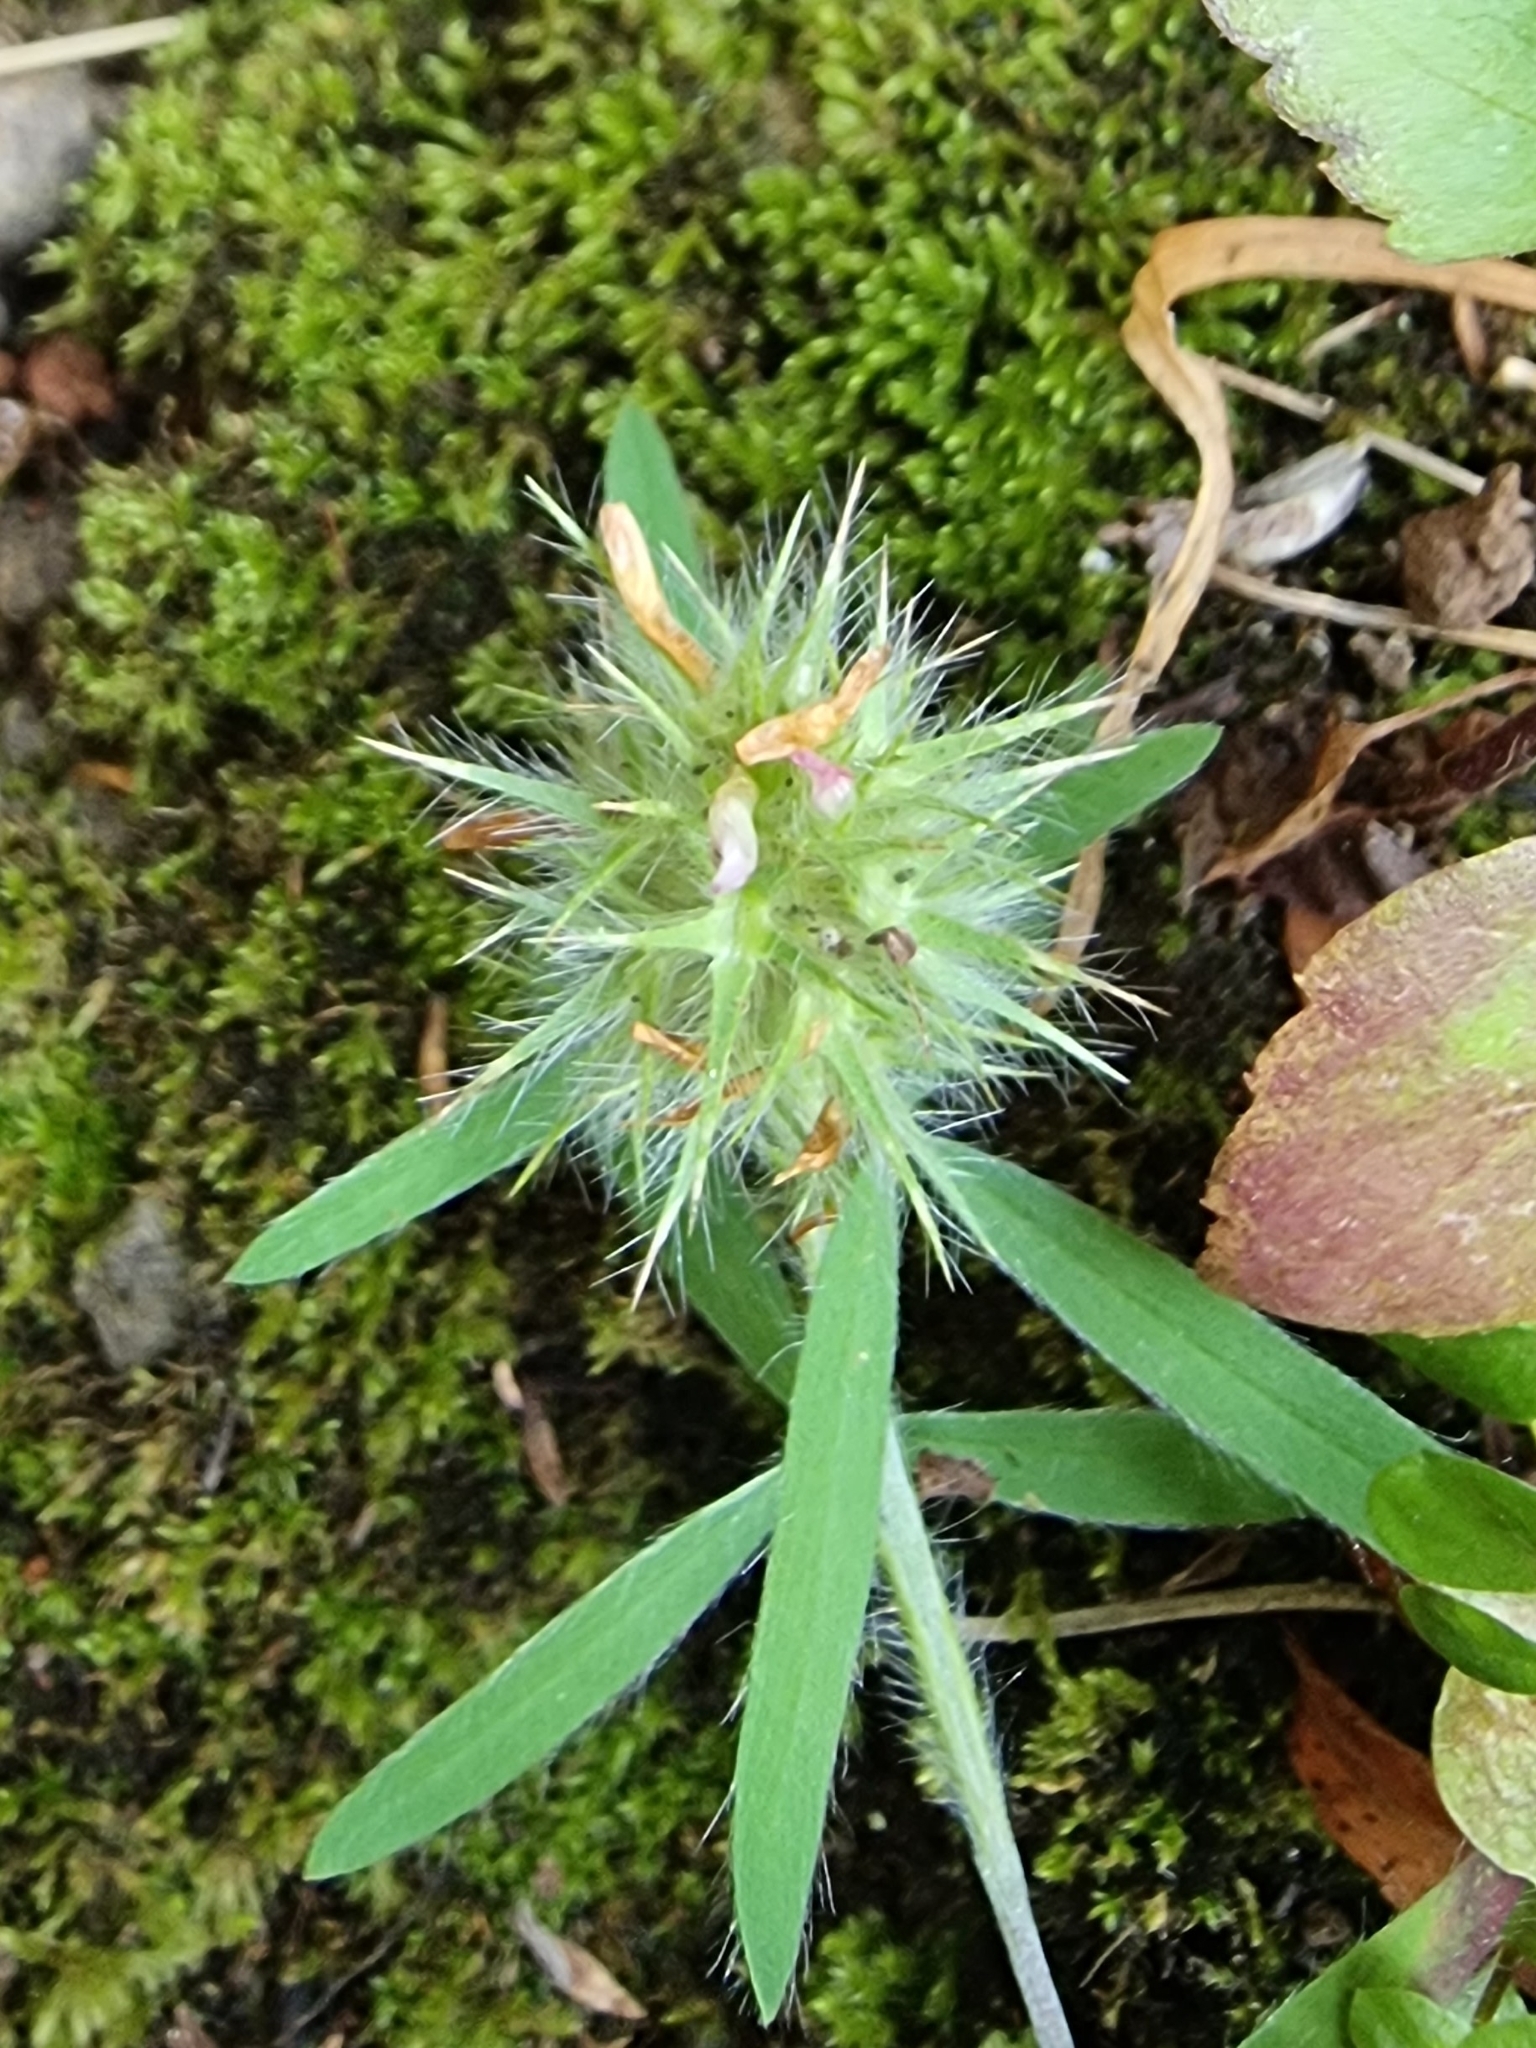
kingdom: Plantae
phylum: Tracheophyta
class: Magnoliopsida
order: Fabales
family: Fabaceae
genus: Trifolium
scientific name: Trifolium angustifolium
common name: Narrow clover
